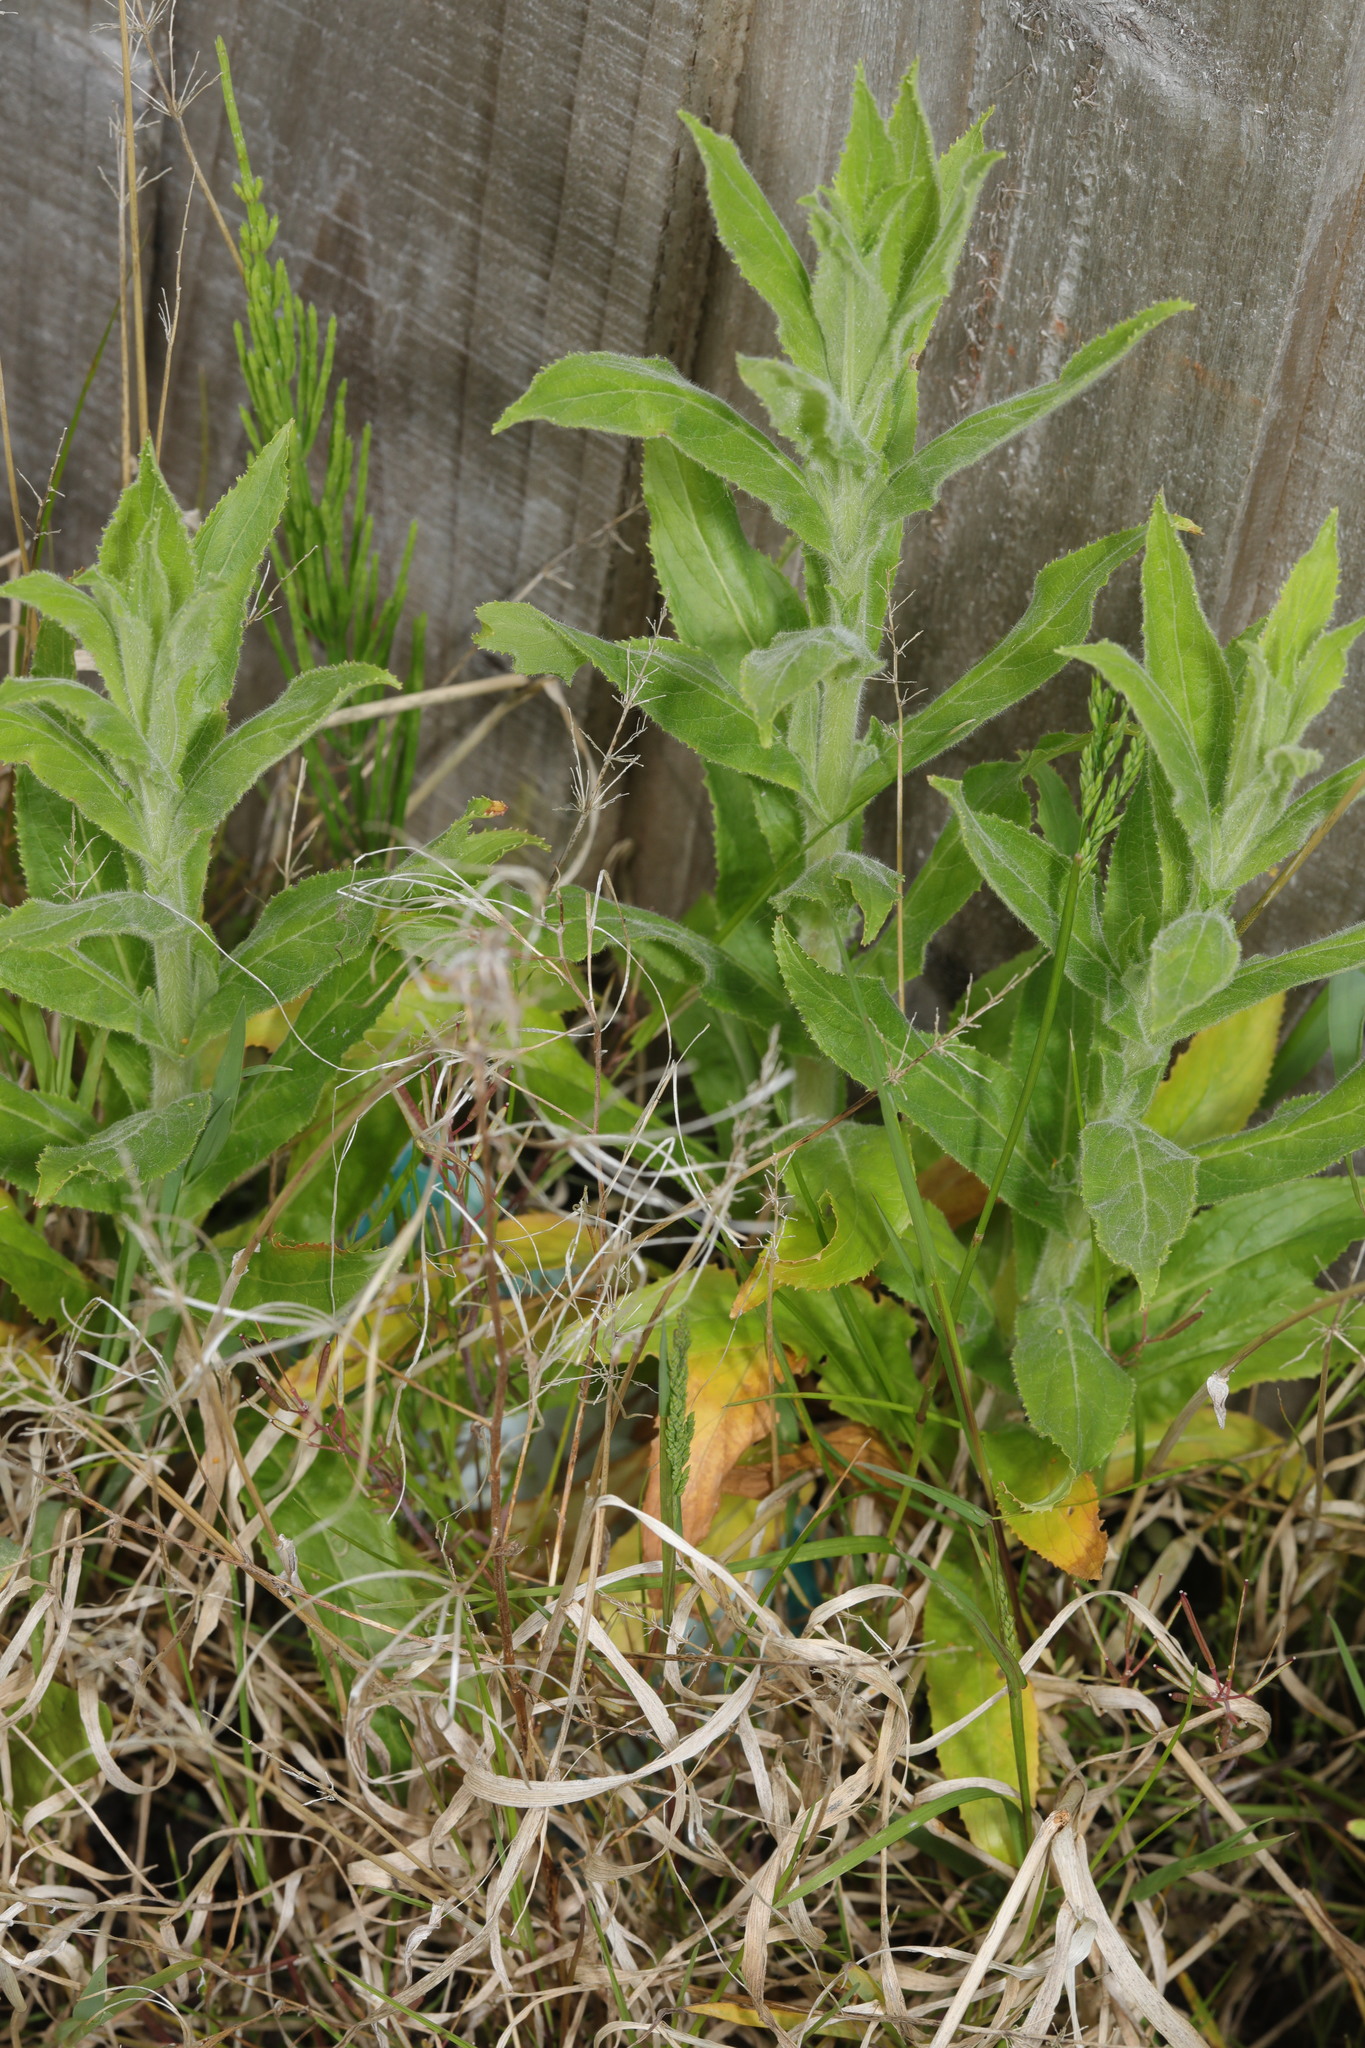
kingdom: Plantae
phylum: Tracheophyta
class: Magnoliopsida
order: Myrtales
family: Onagraceae
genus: Epilobium
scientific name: Epilobium hirsutum
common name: Great willowherb
